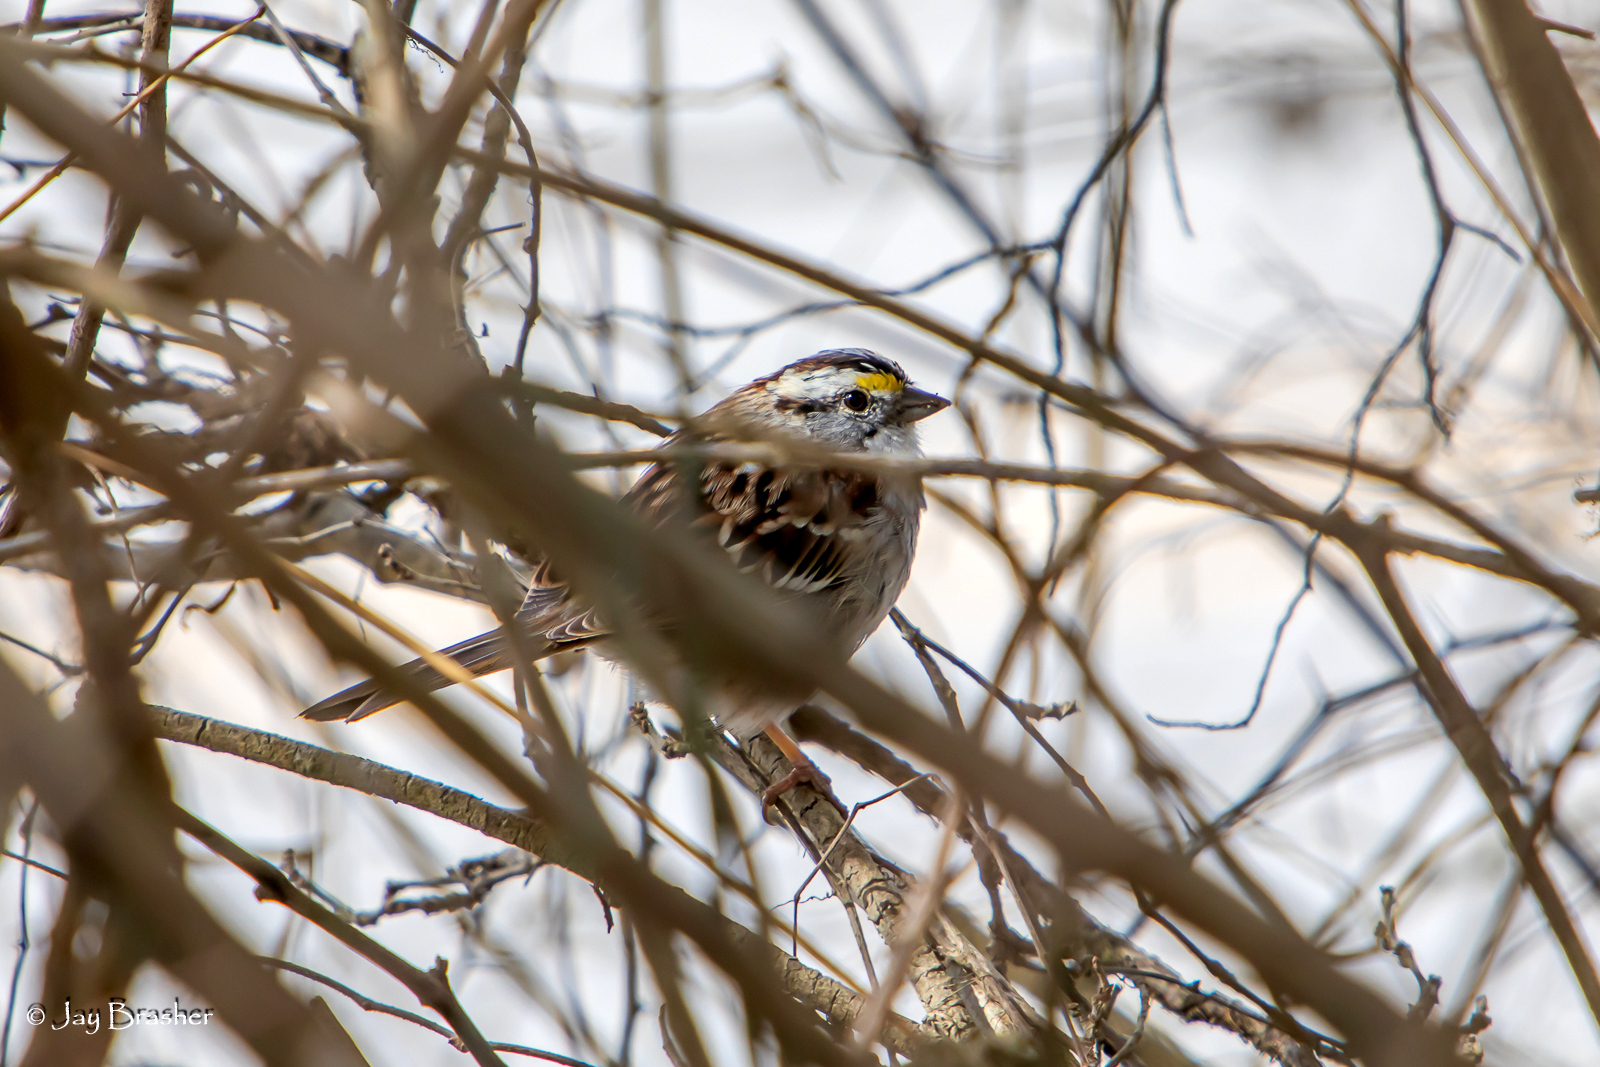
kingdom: Animalia
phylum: Chordata
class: Aves
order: Passeriformes
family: Passerellidae
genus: Zonotrichia
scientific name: Zonotrichia albicollis
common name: White-throated sparrow
